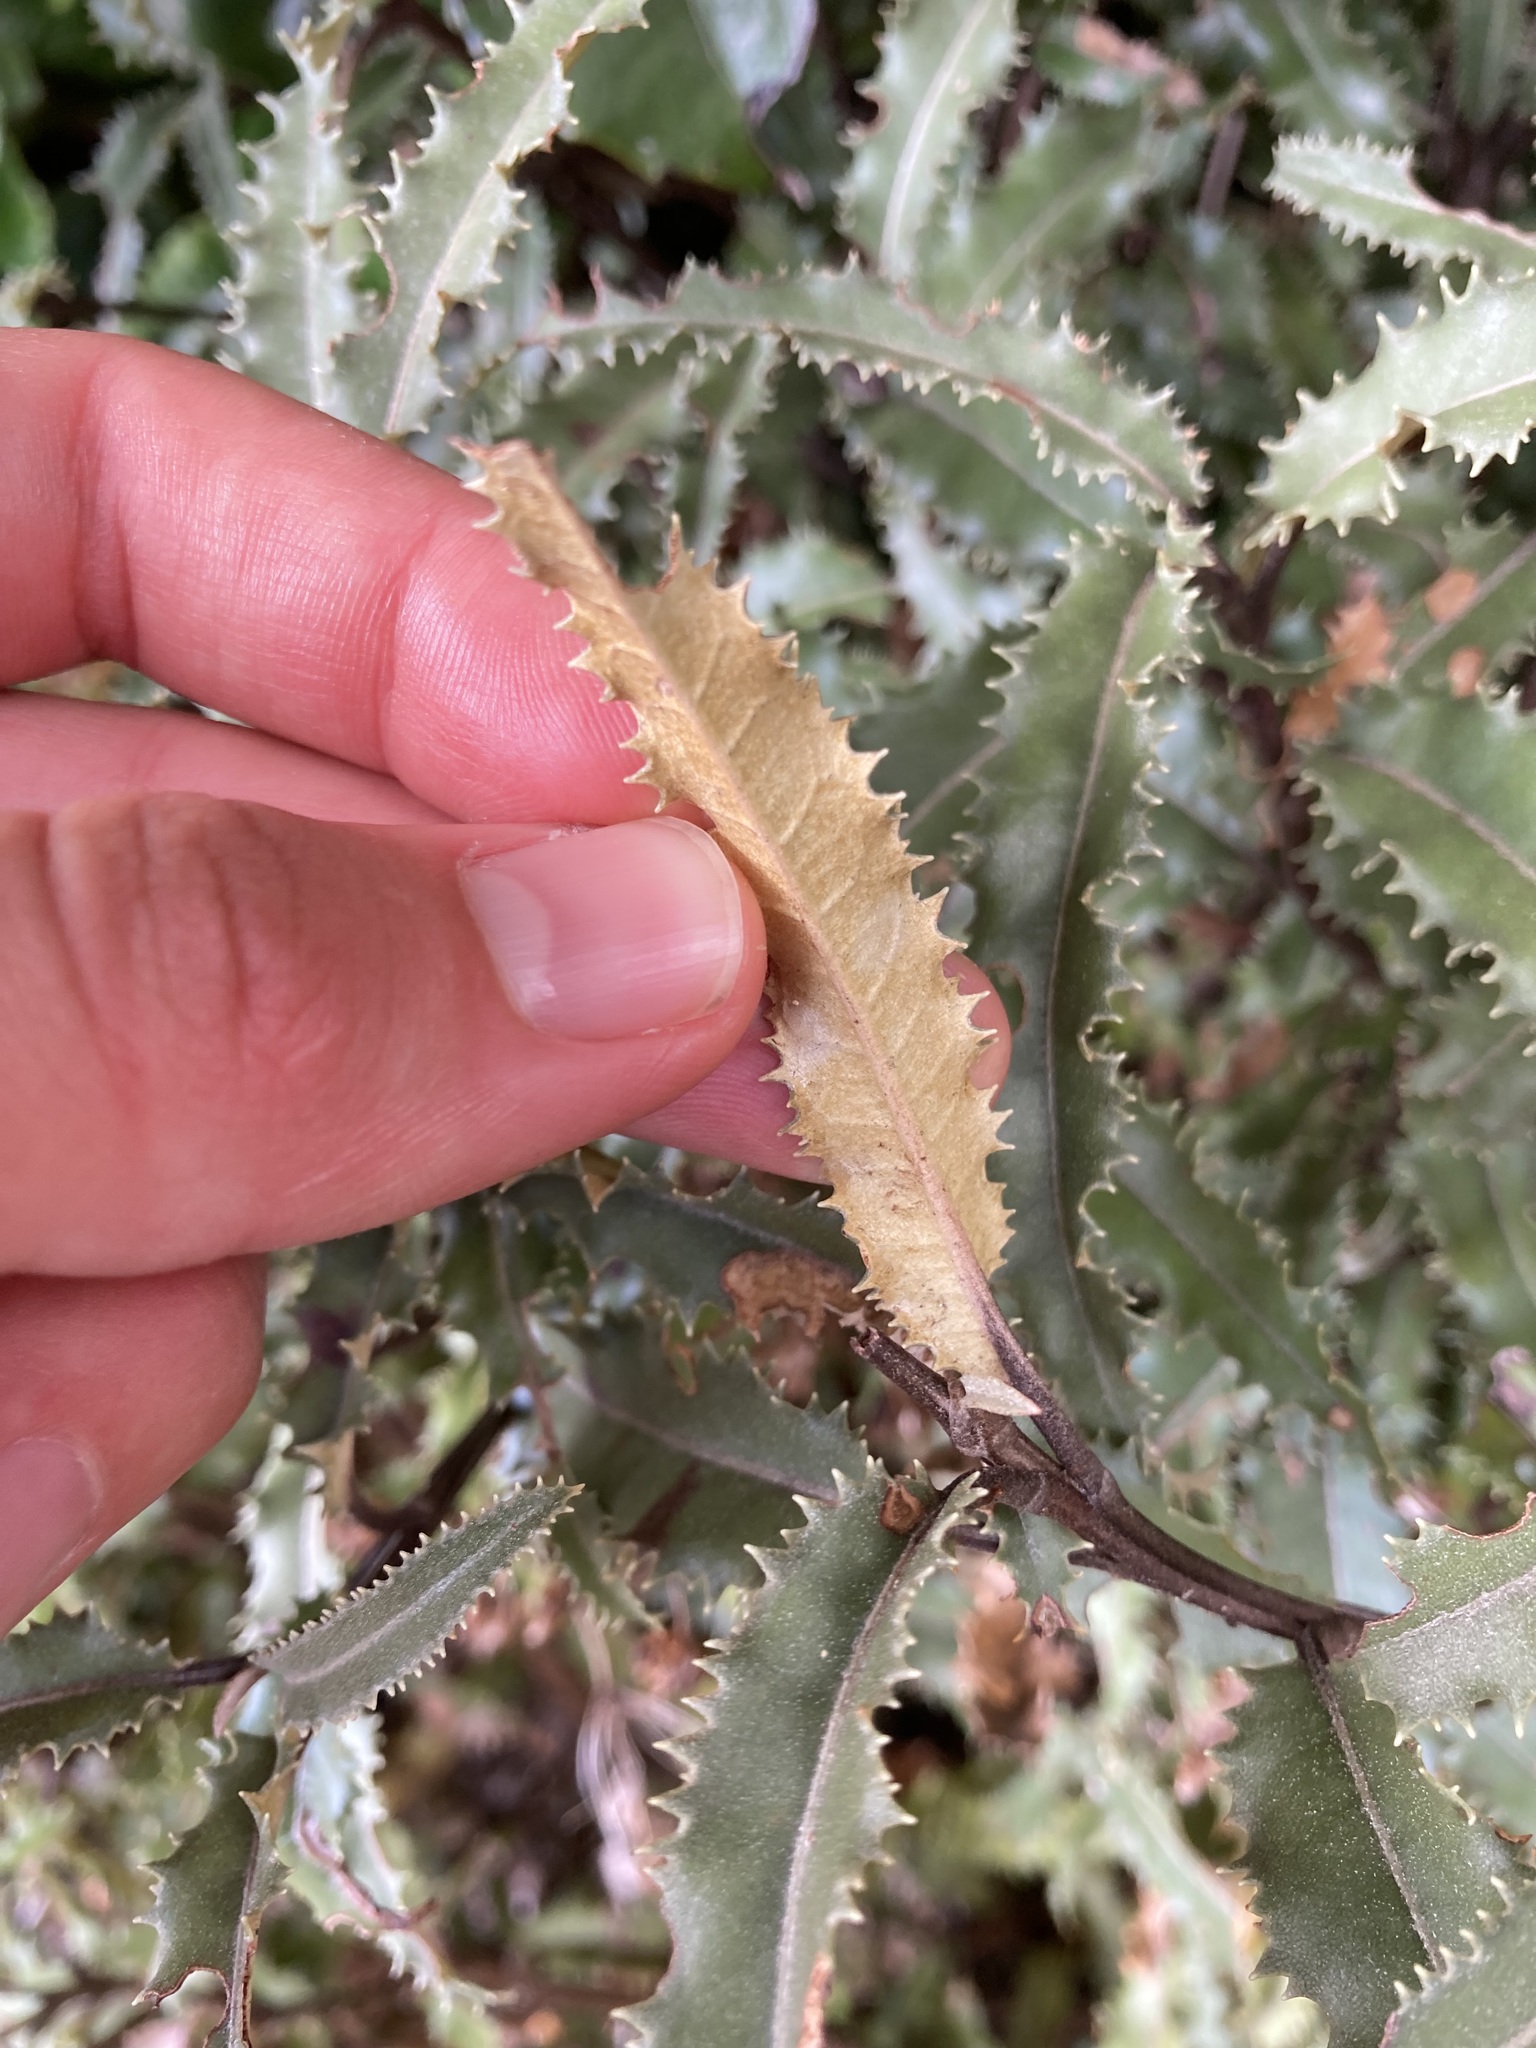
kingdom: Plantae
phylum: Tracheophyta
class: Magnoliopsida
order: Asterales
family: Asteraceae
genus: Olearia
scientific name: Olearia ilicifolia
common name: Maori-holly
